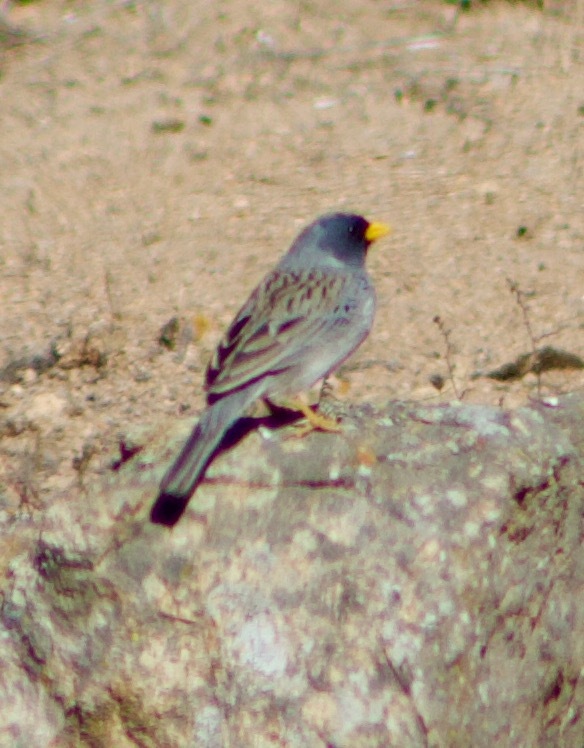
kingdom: Animalia
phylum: Chordata
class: Aves
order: Passeriformes
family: Thraupidae
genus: Porphyrospiza
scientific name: Porphyrospiza alaudina
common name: Band-tailed sierra finch
